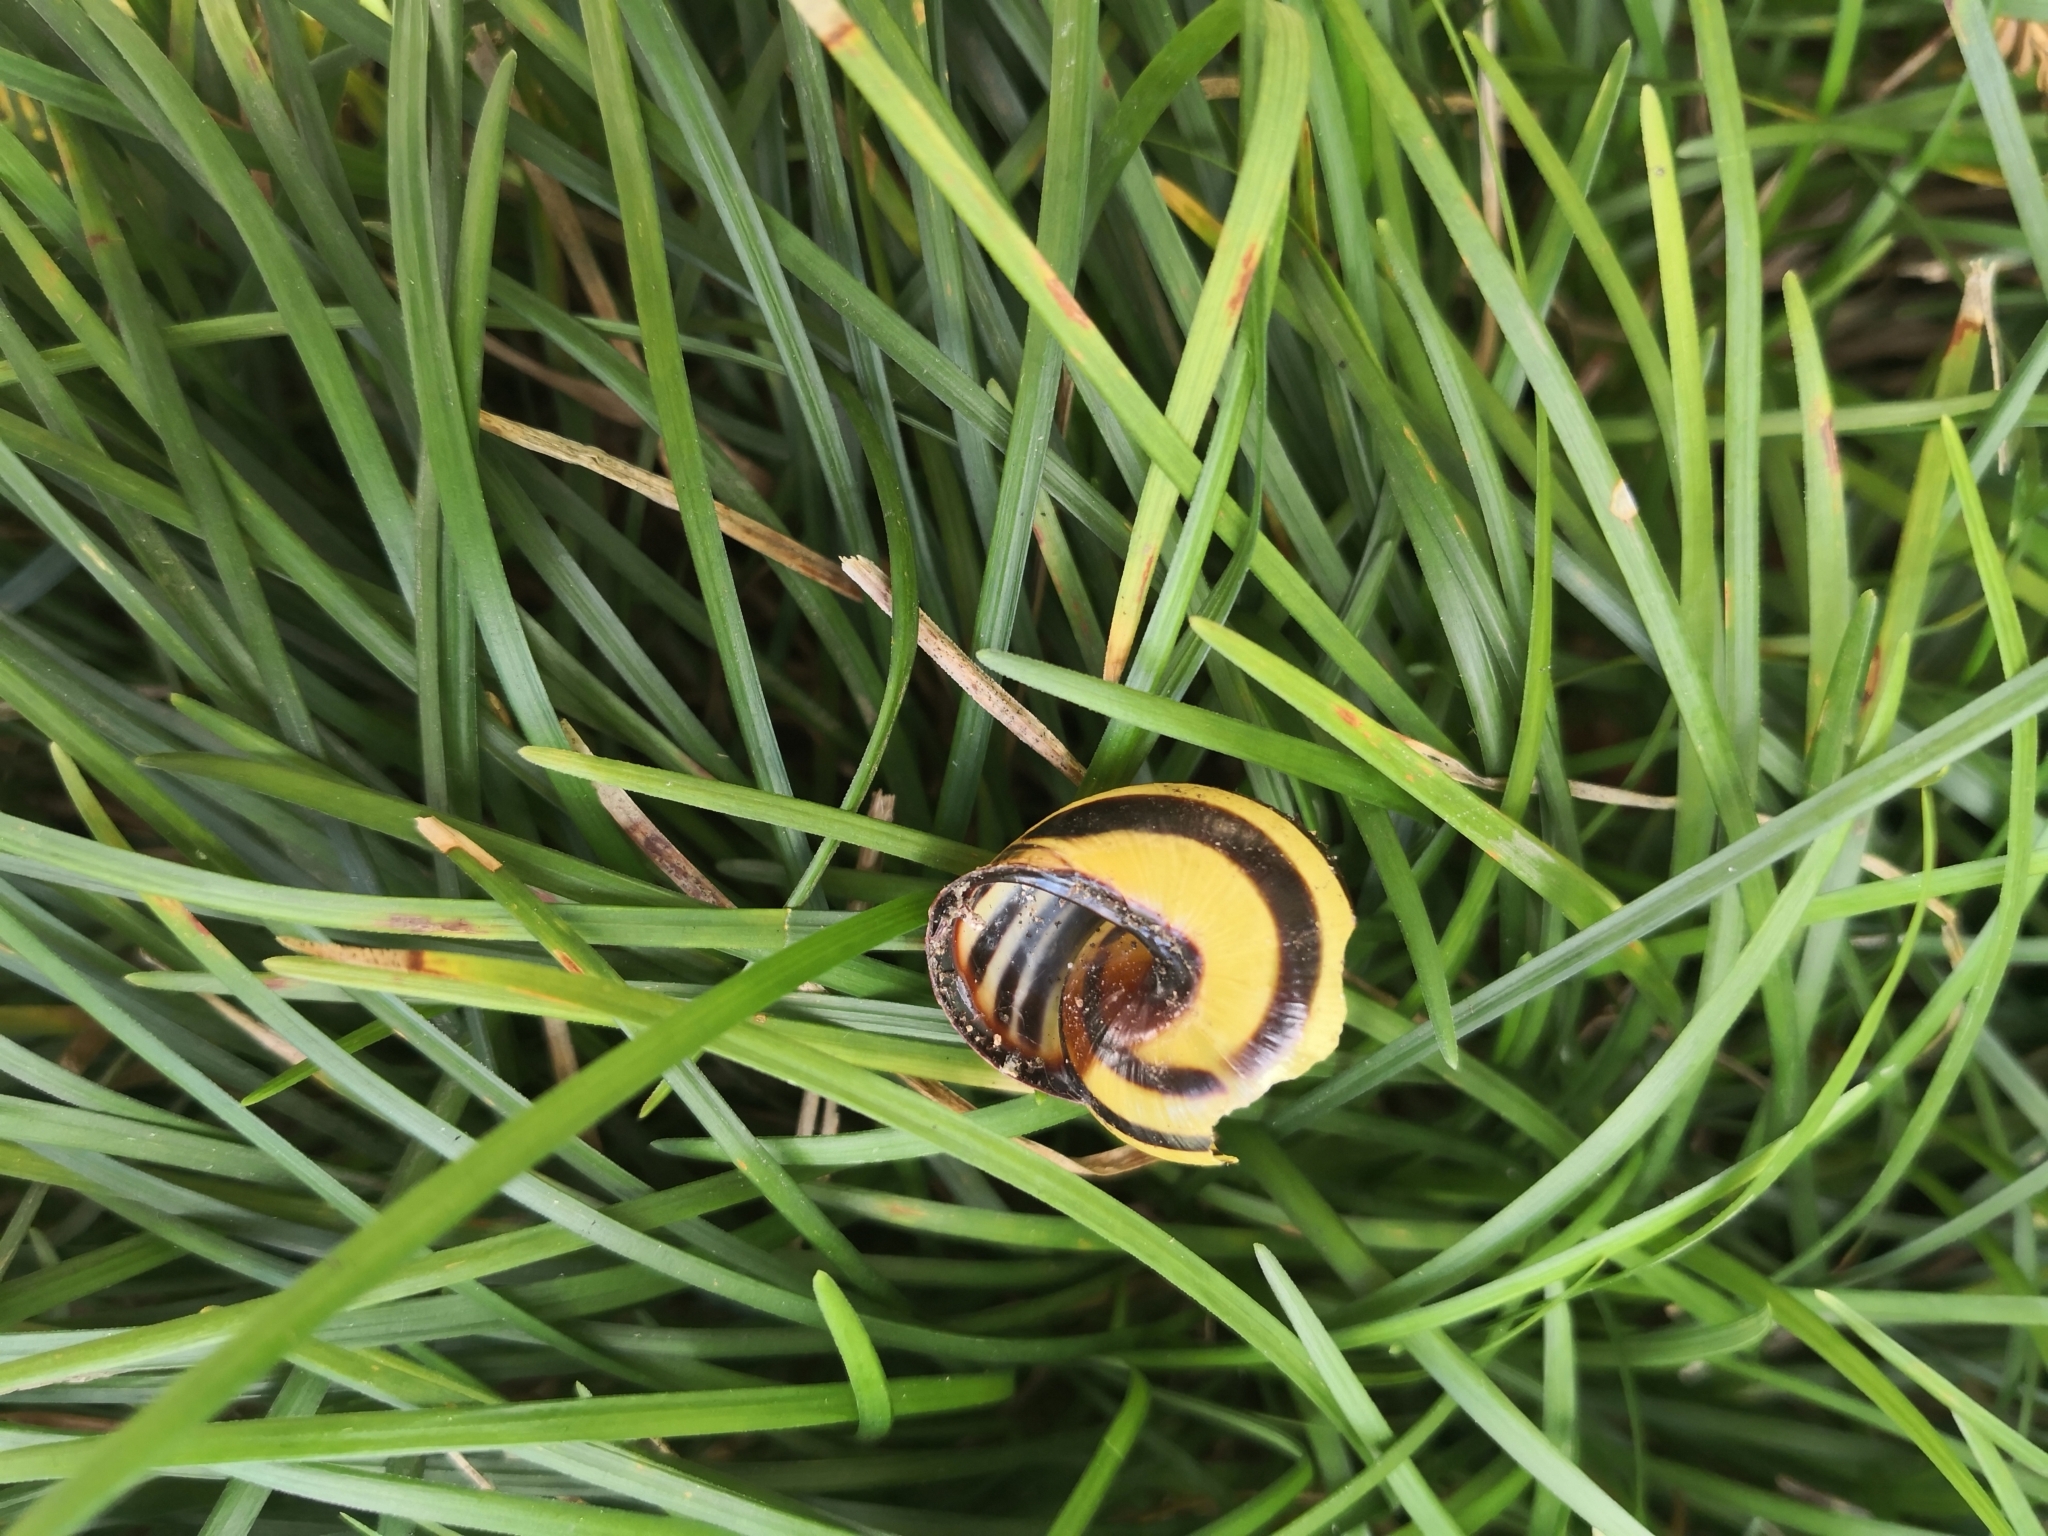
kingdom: Animalia
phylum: Mollusca
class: Gastropoda
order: Stylommatophora
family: Helicidae
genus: Cepaea
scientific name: Cepaea nemoralis
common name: Grovesnail
